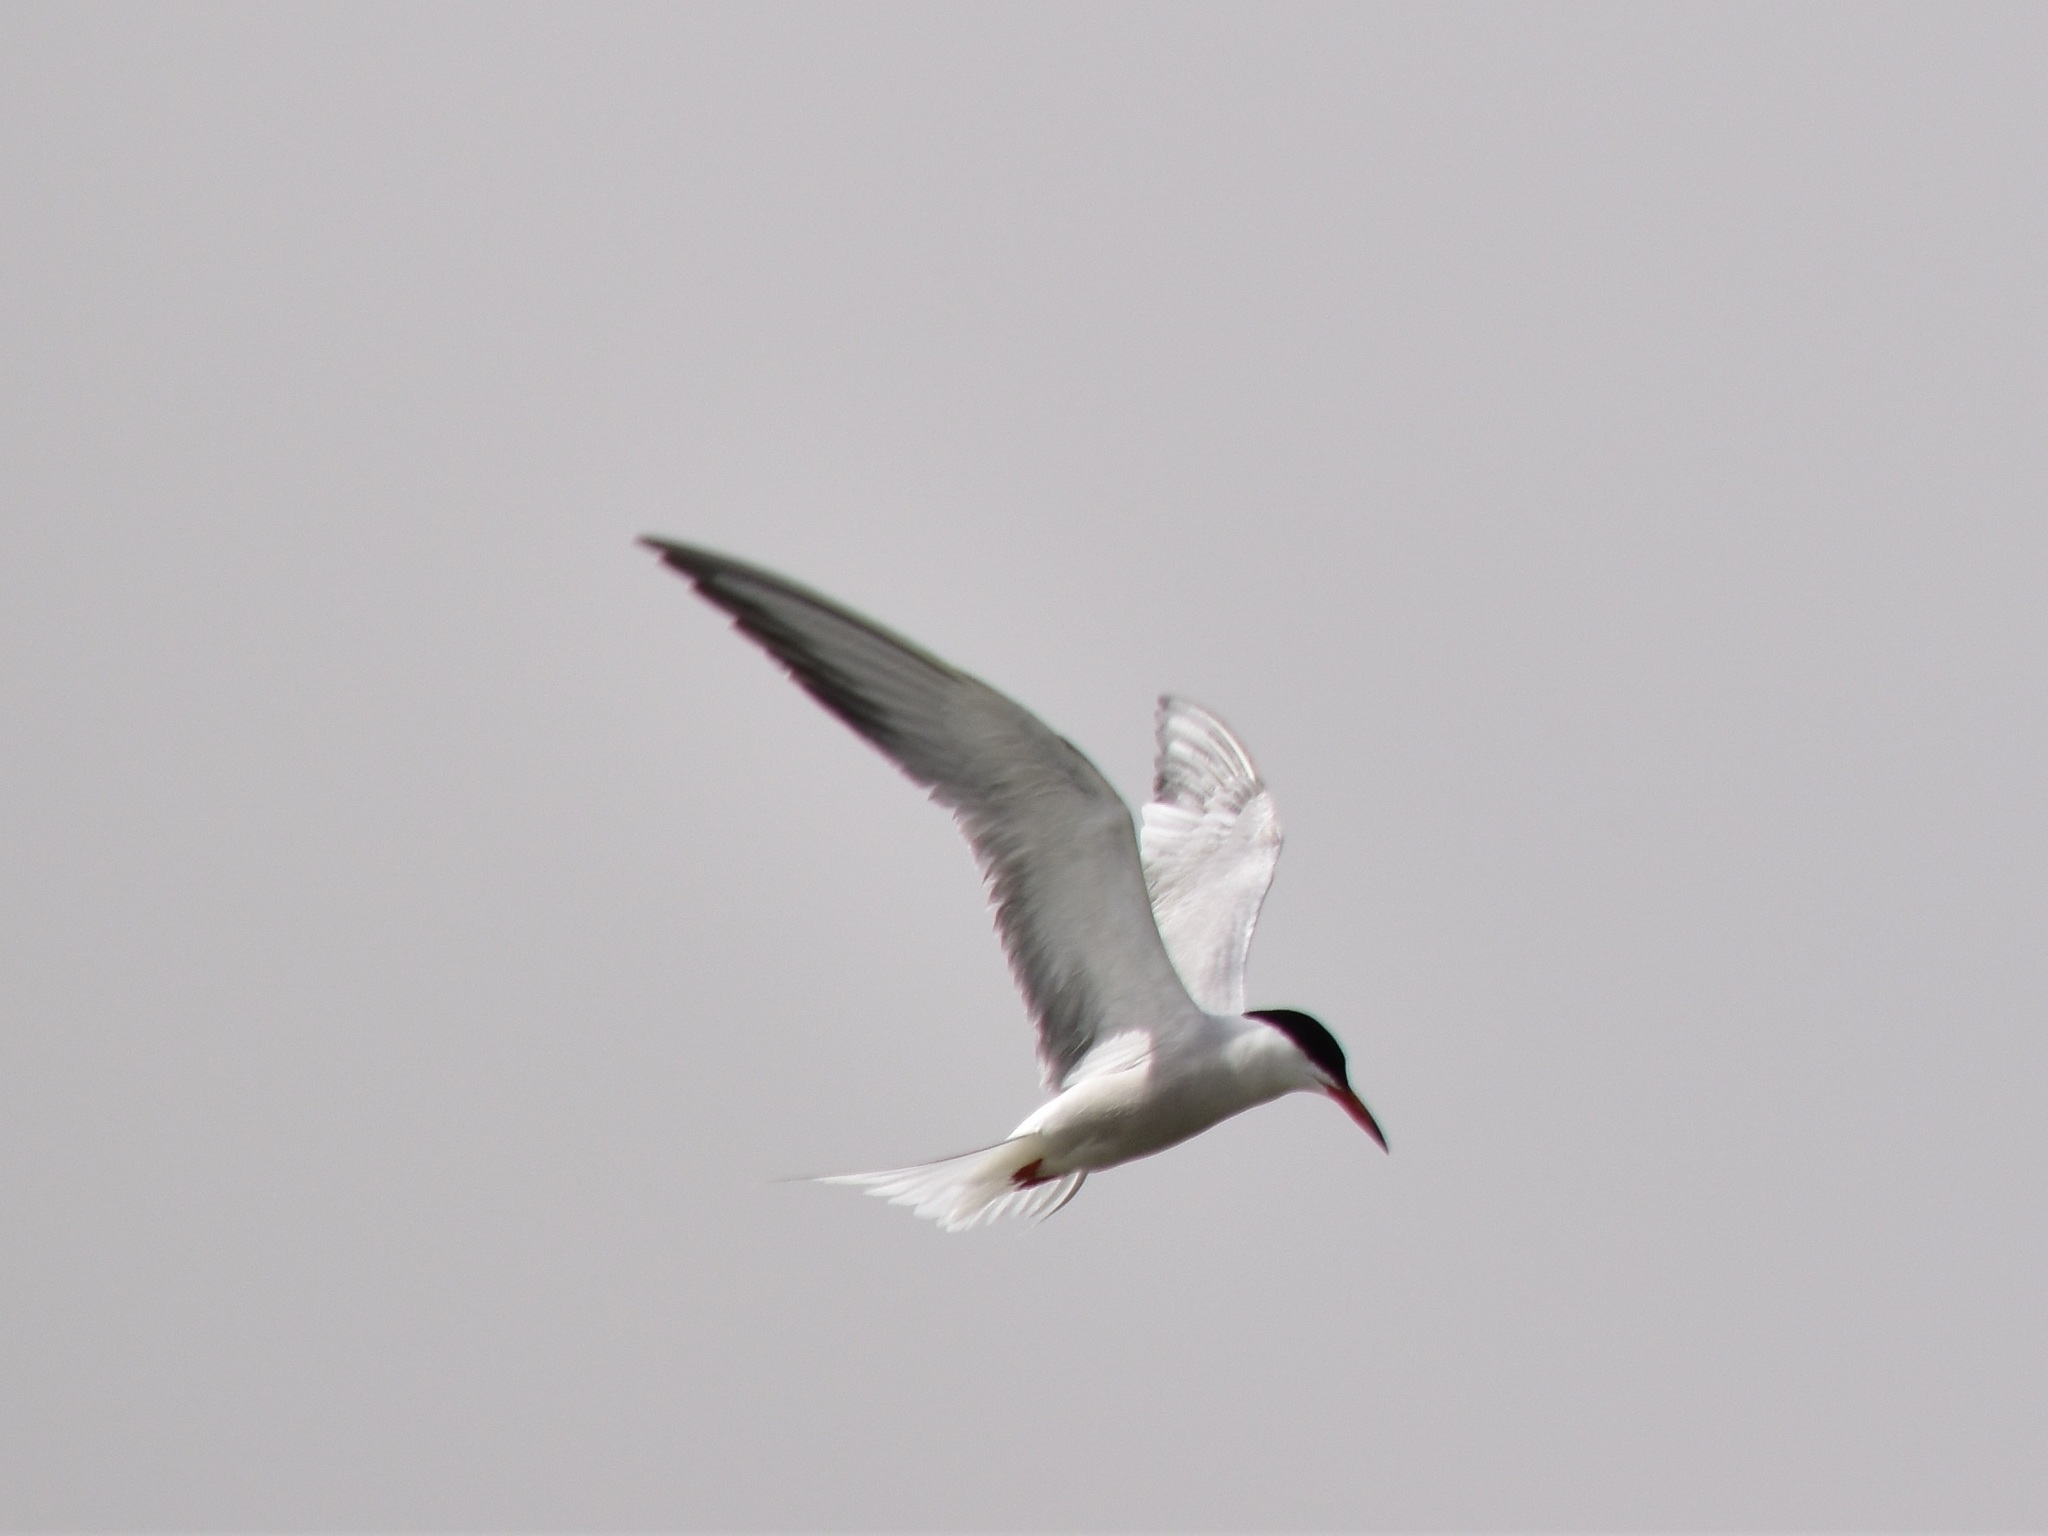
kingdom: Animalia
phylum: Chordata
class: Aves
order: Charadriiformes
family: Laridae
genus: Sterna
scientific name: Sterna hirundo
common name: Common tern
